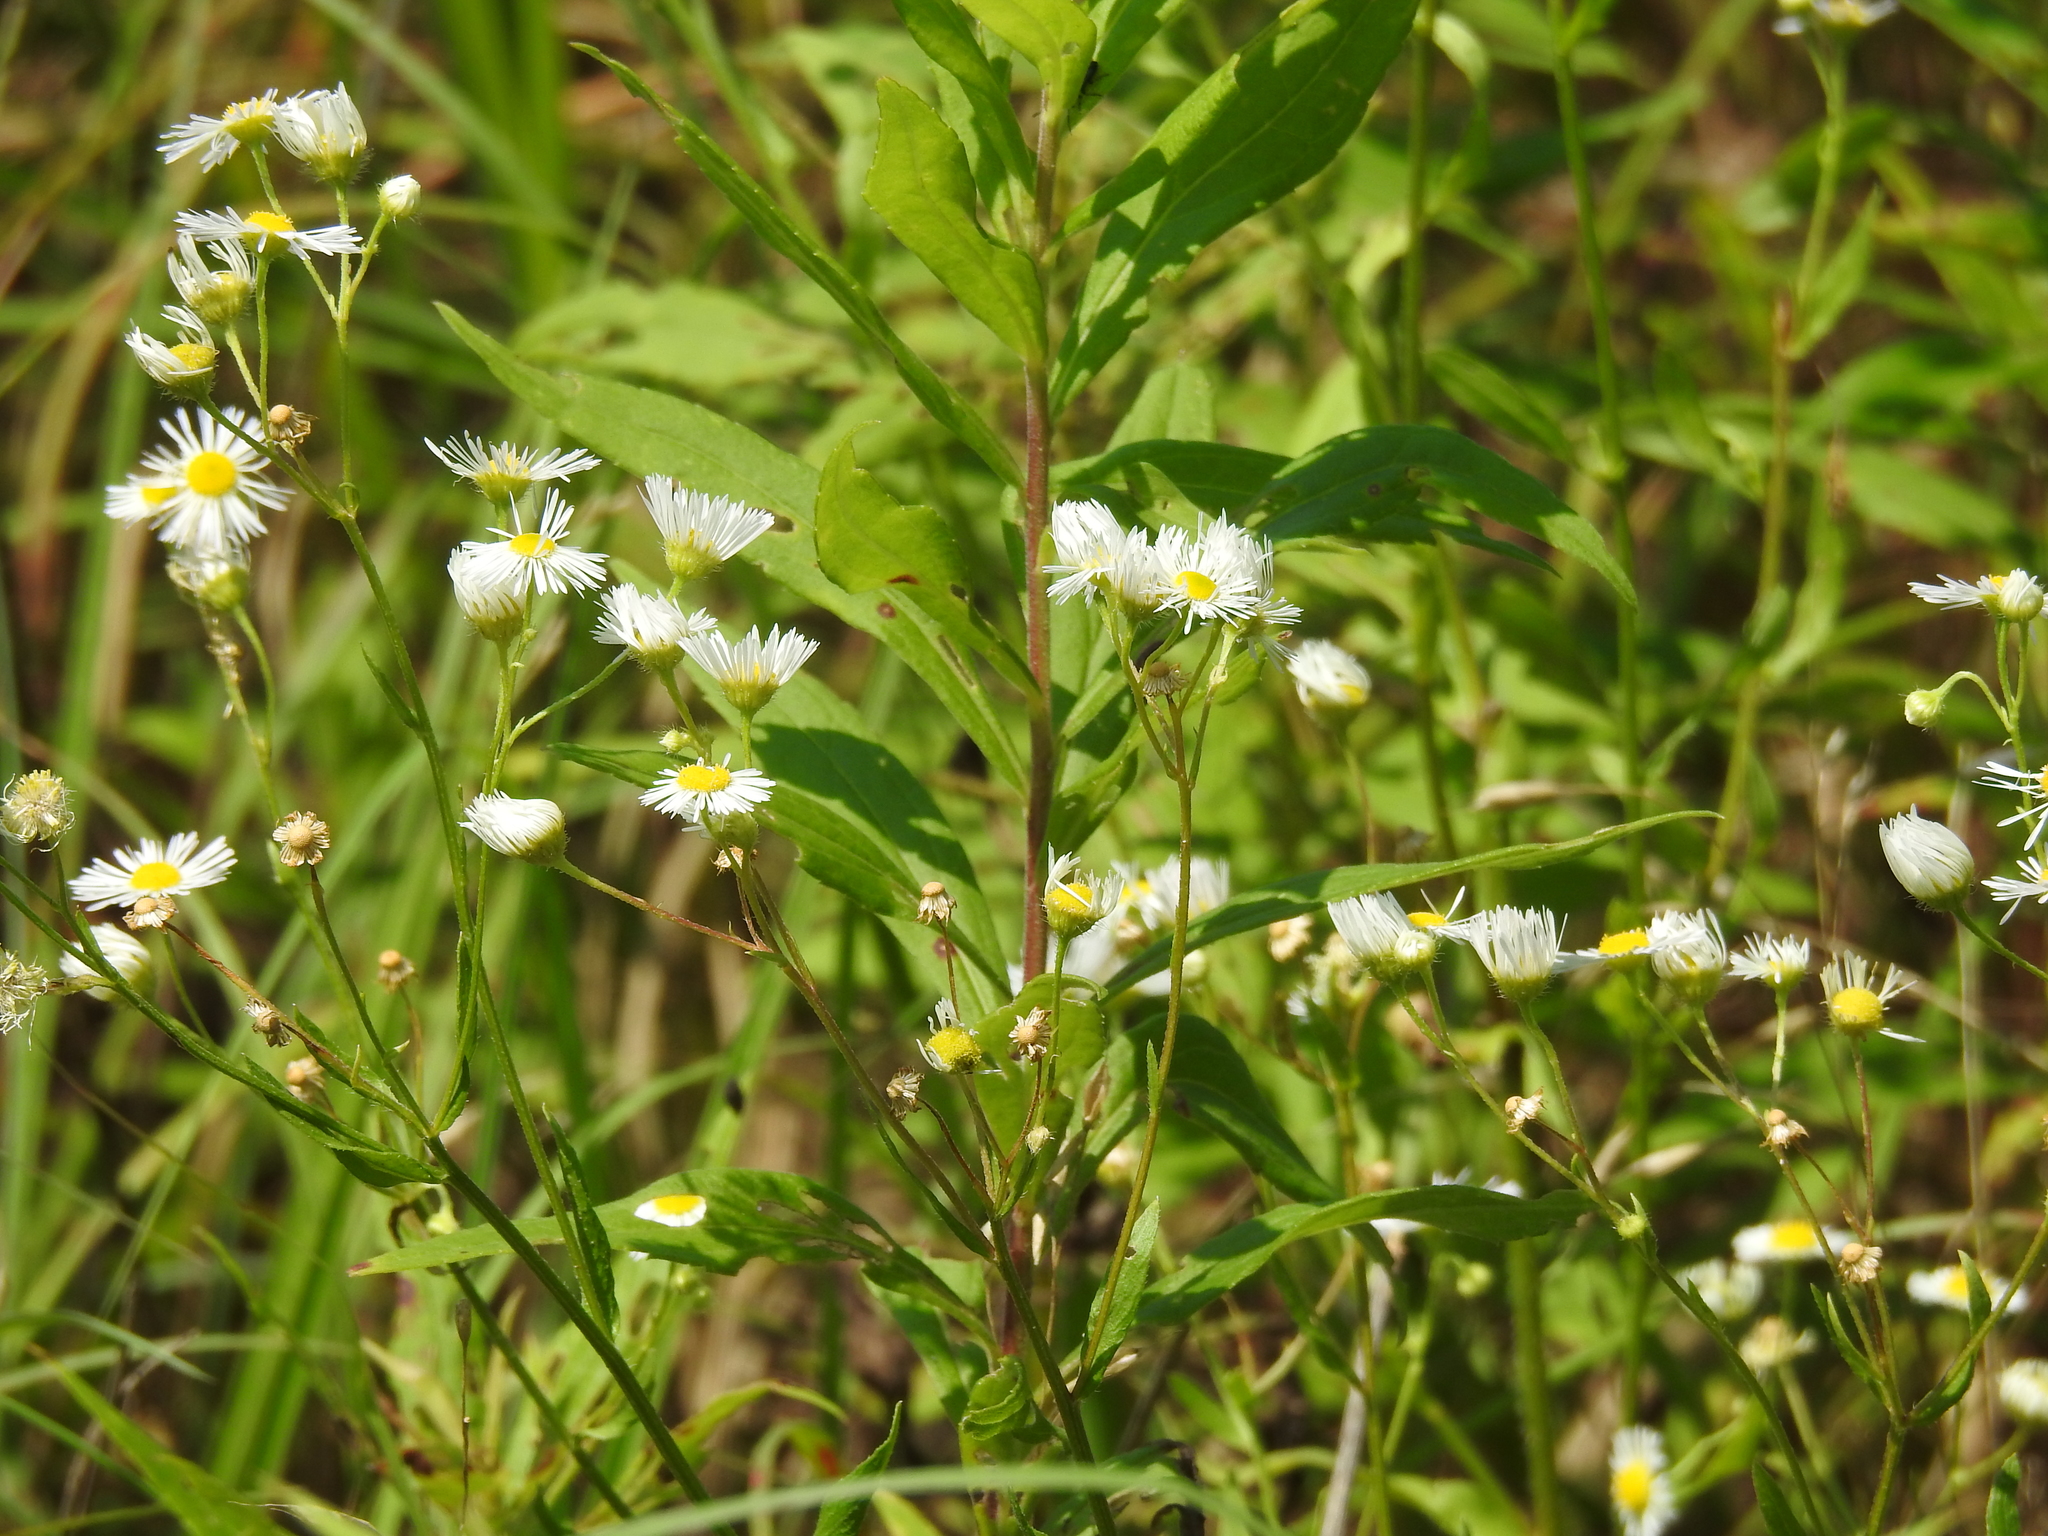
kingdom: Plantae
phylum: Tracheophyta
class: Magnoliopsida
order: Asterales
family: Asteraceae
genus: Erigeron
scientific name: Erigeron strigosus
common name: Common eastern fleabane
